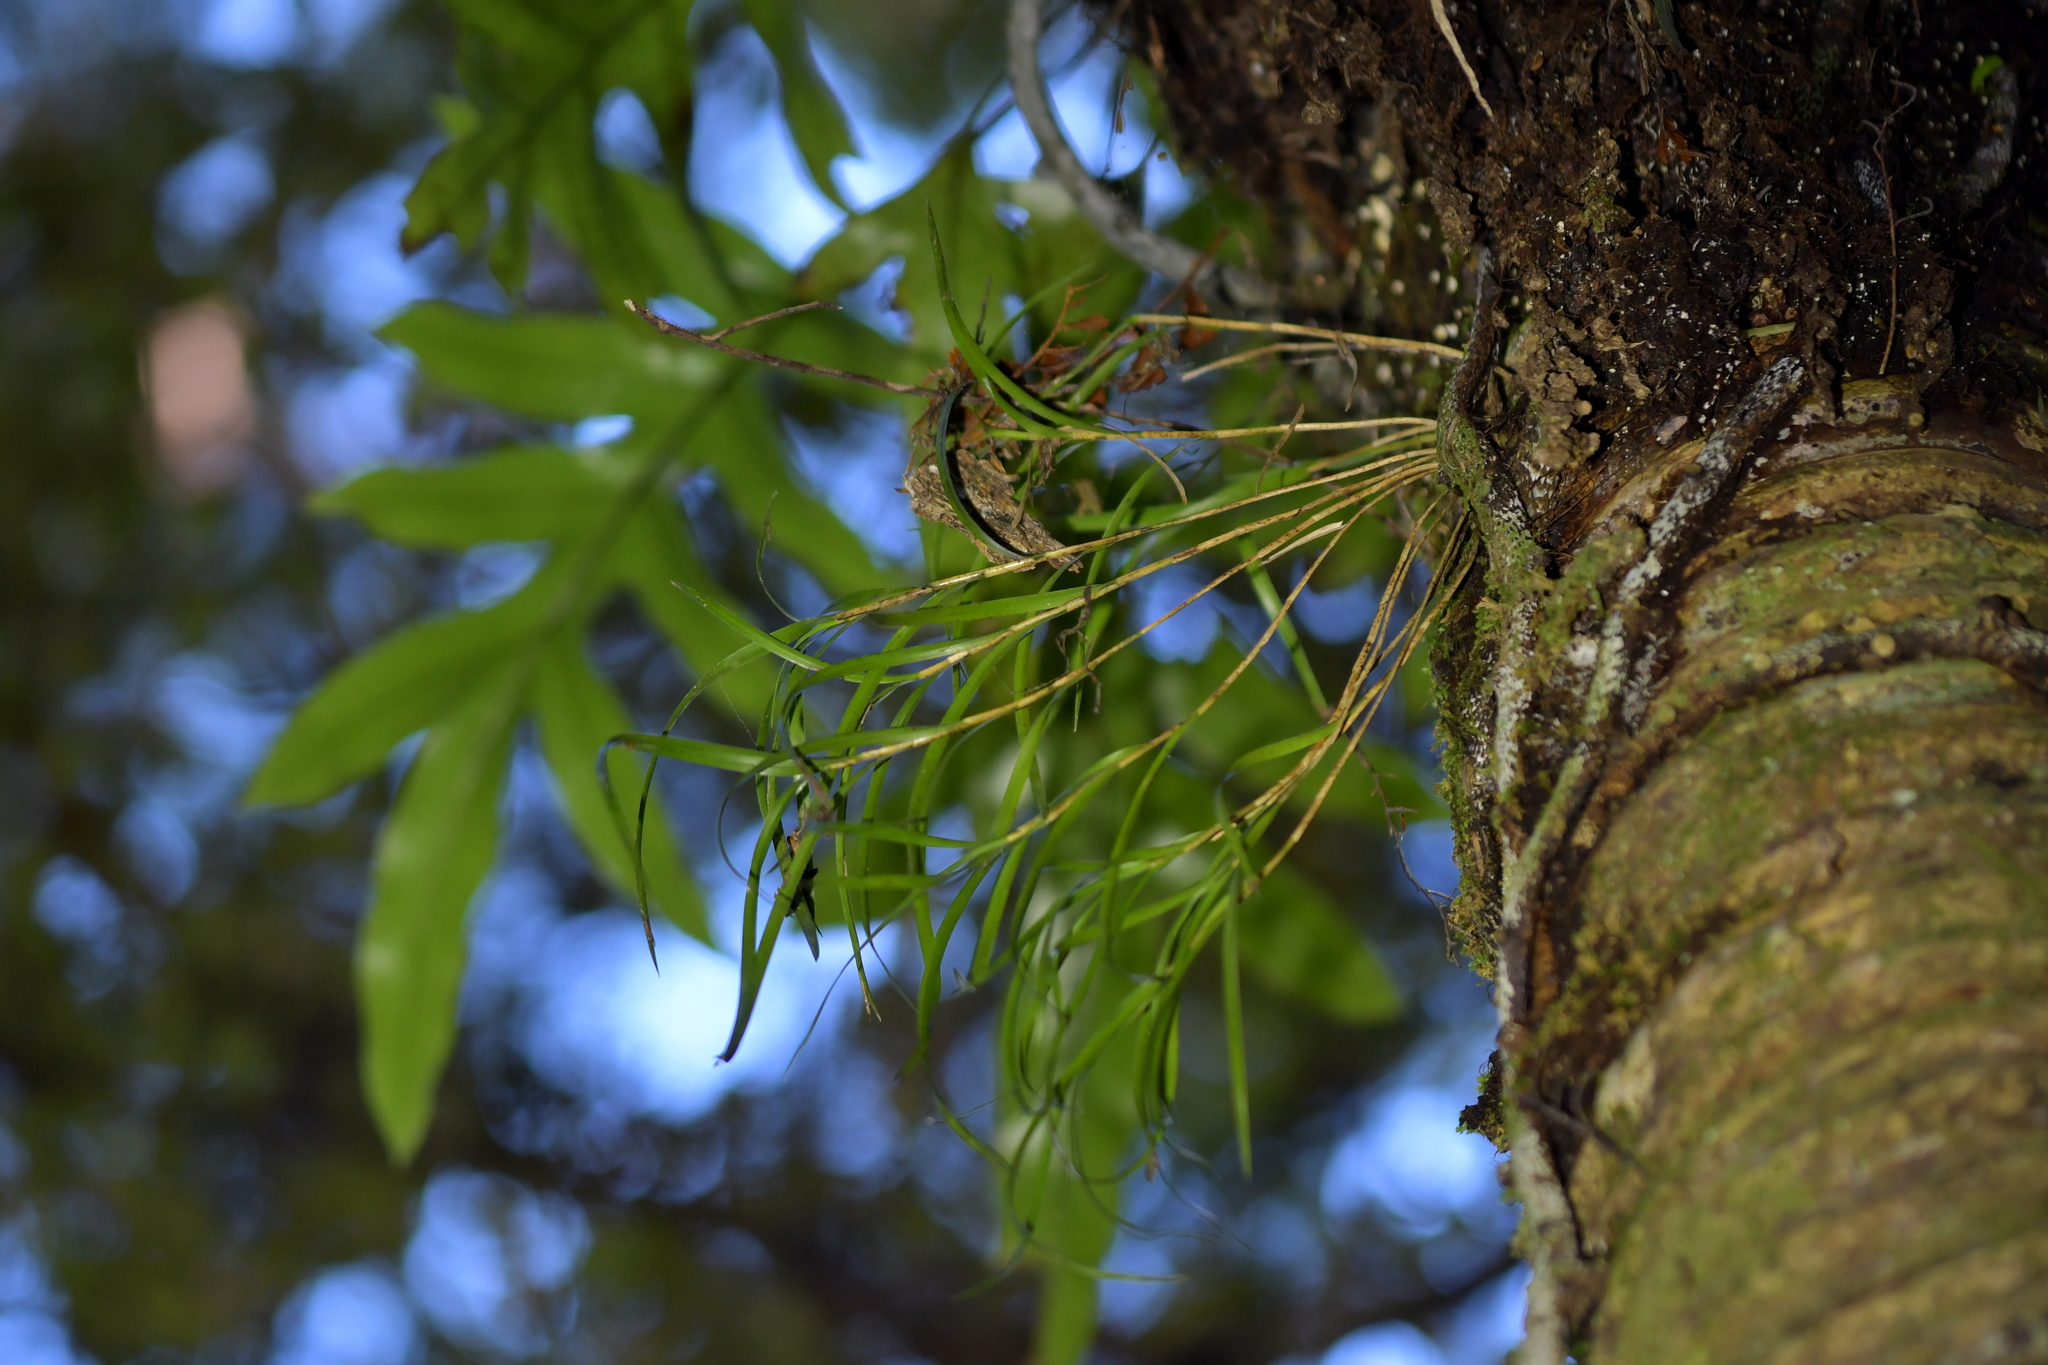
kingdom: Plantae
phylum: Tracheophyta
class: Liliopsida
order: Asparagales
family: Orchidaceae
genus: Dendrobium
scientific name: Dendrobium cunninghamii
